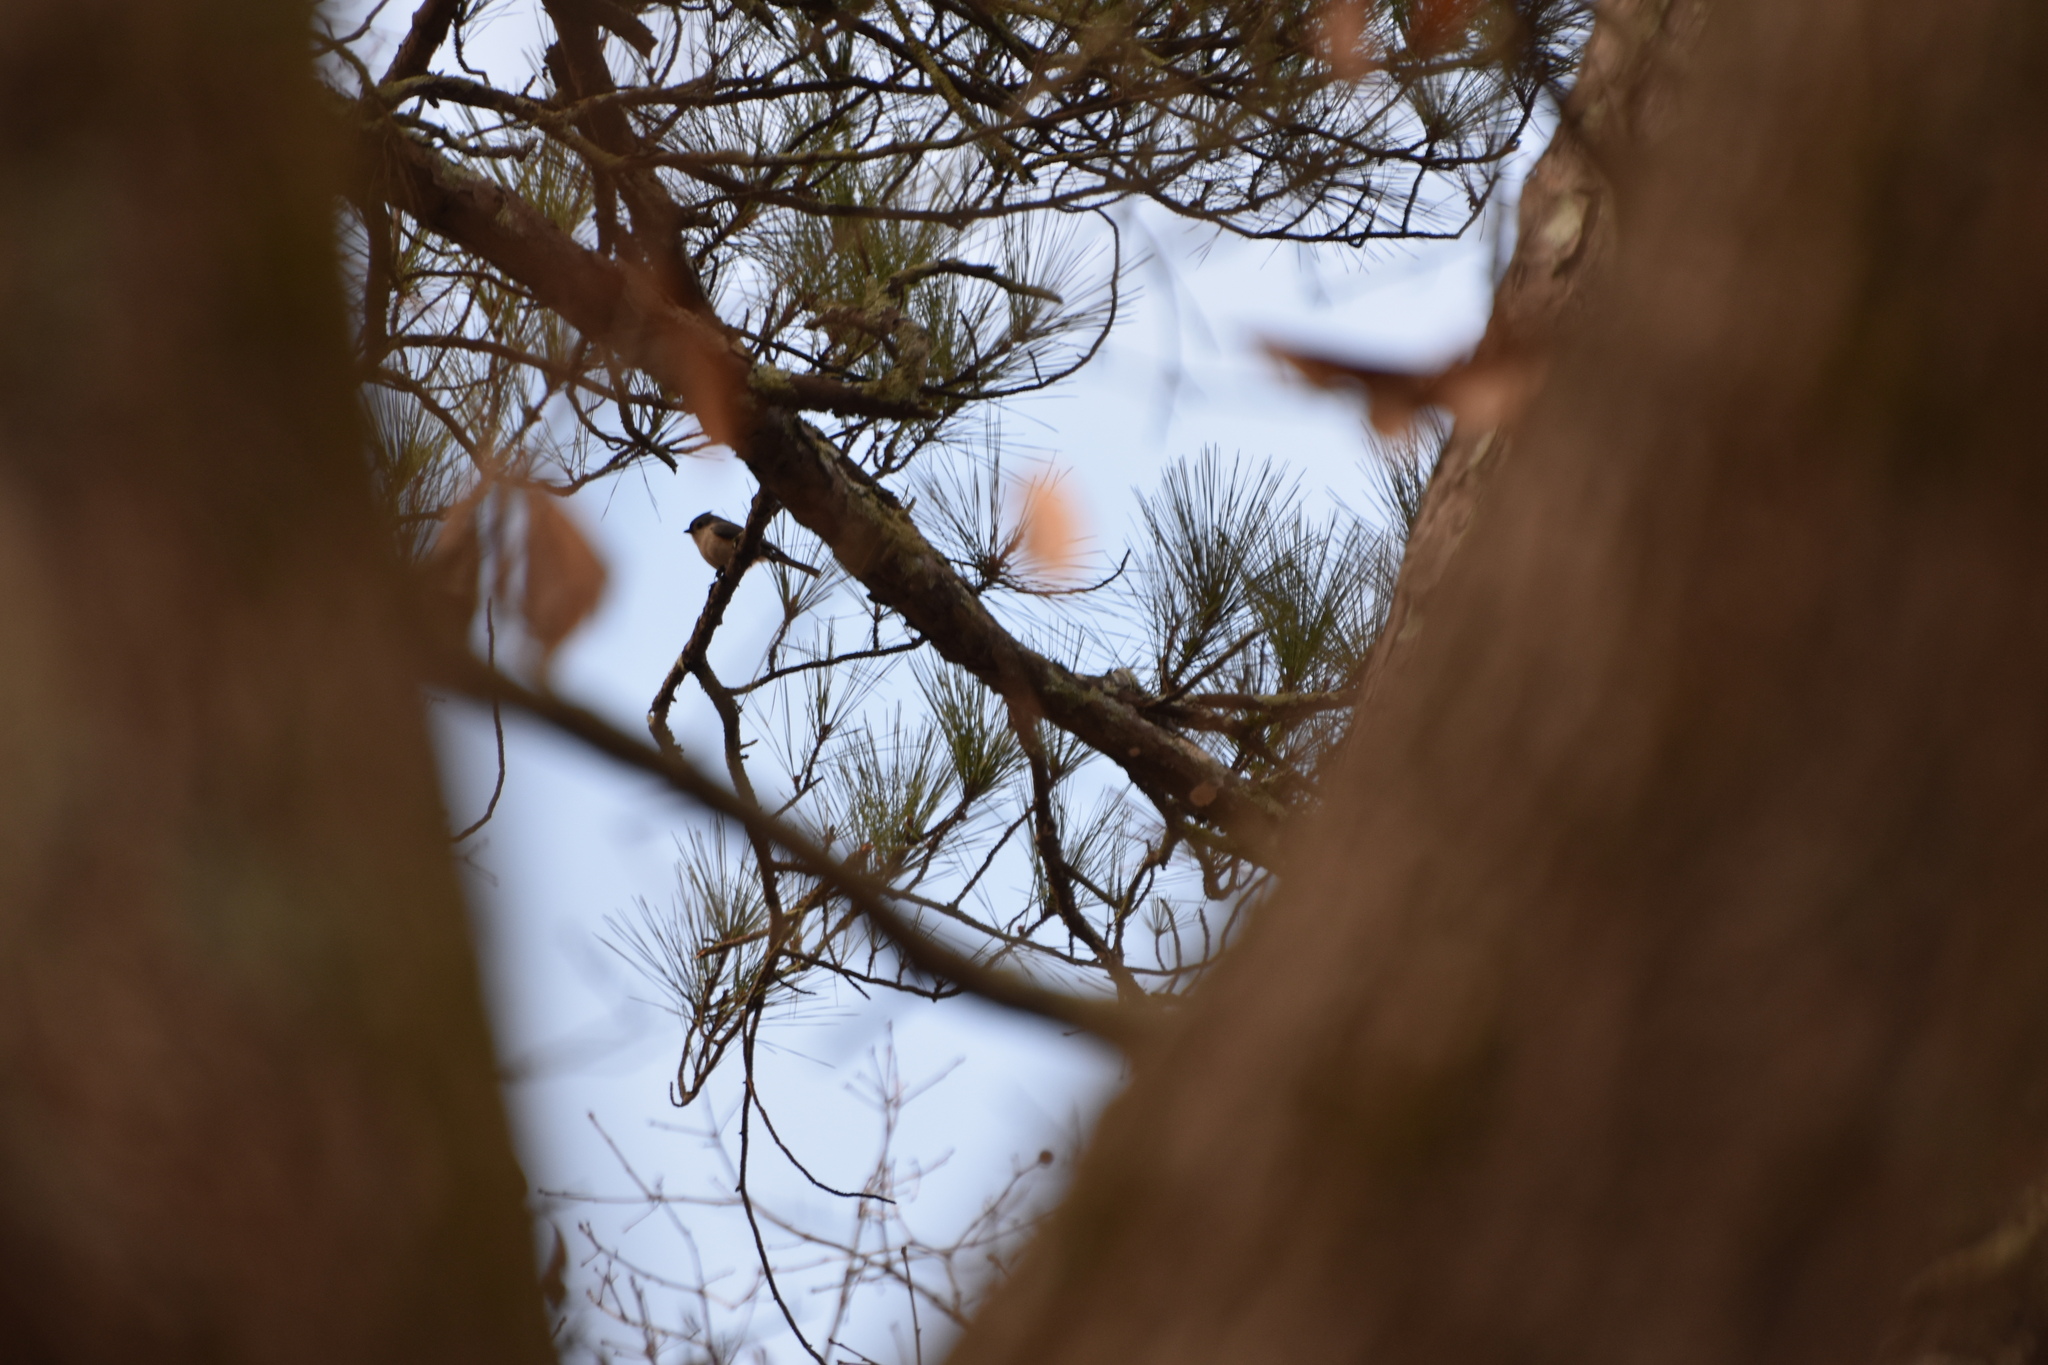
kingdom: Animalia
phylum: Chordata
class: Aves
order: Passeriformes
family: Paridae
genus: Baeolophus
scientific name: Baeolophus bicolor
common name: Tufted titmouse
